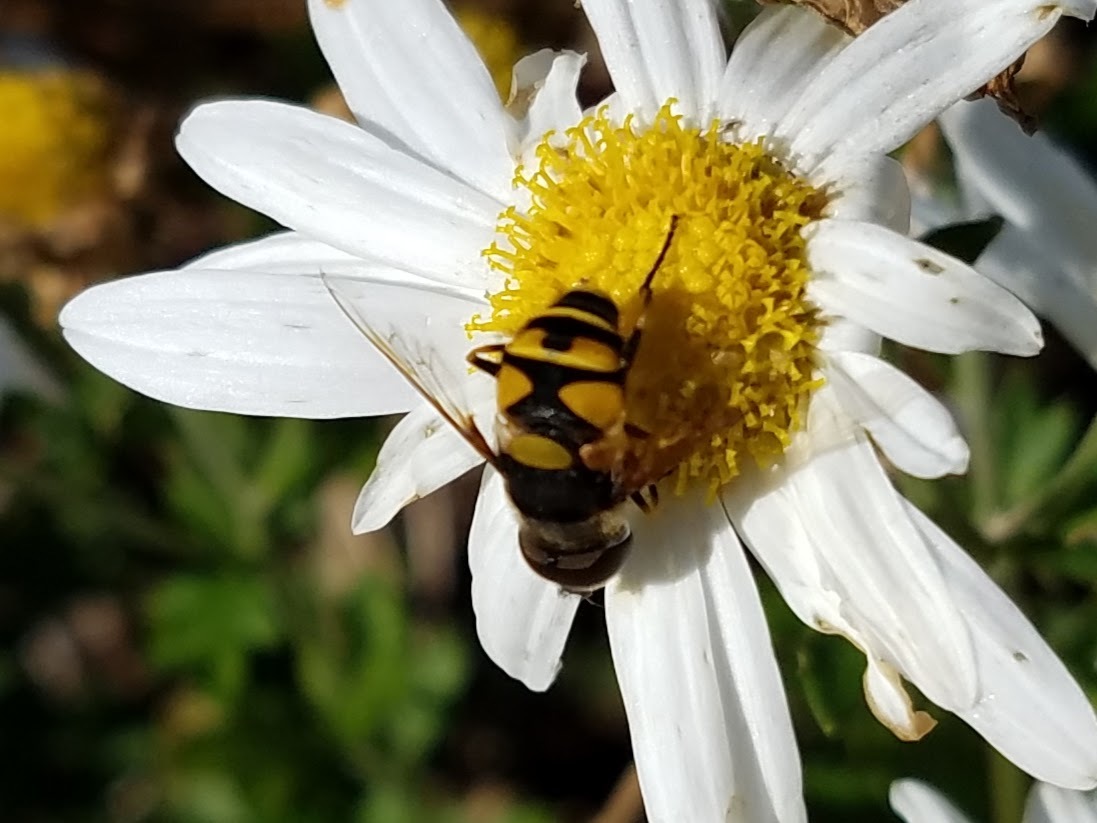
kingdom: Animalia
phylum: Arthropoda
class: Insecta
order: Diptera
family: Syrphidae
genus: Eristalis
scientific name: Eristalis transversa
